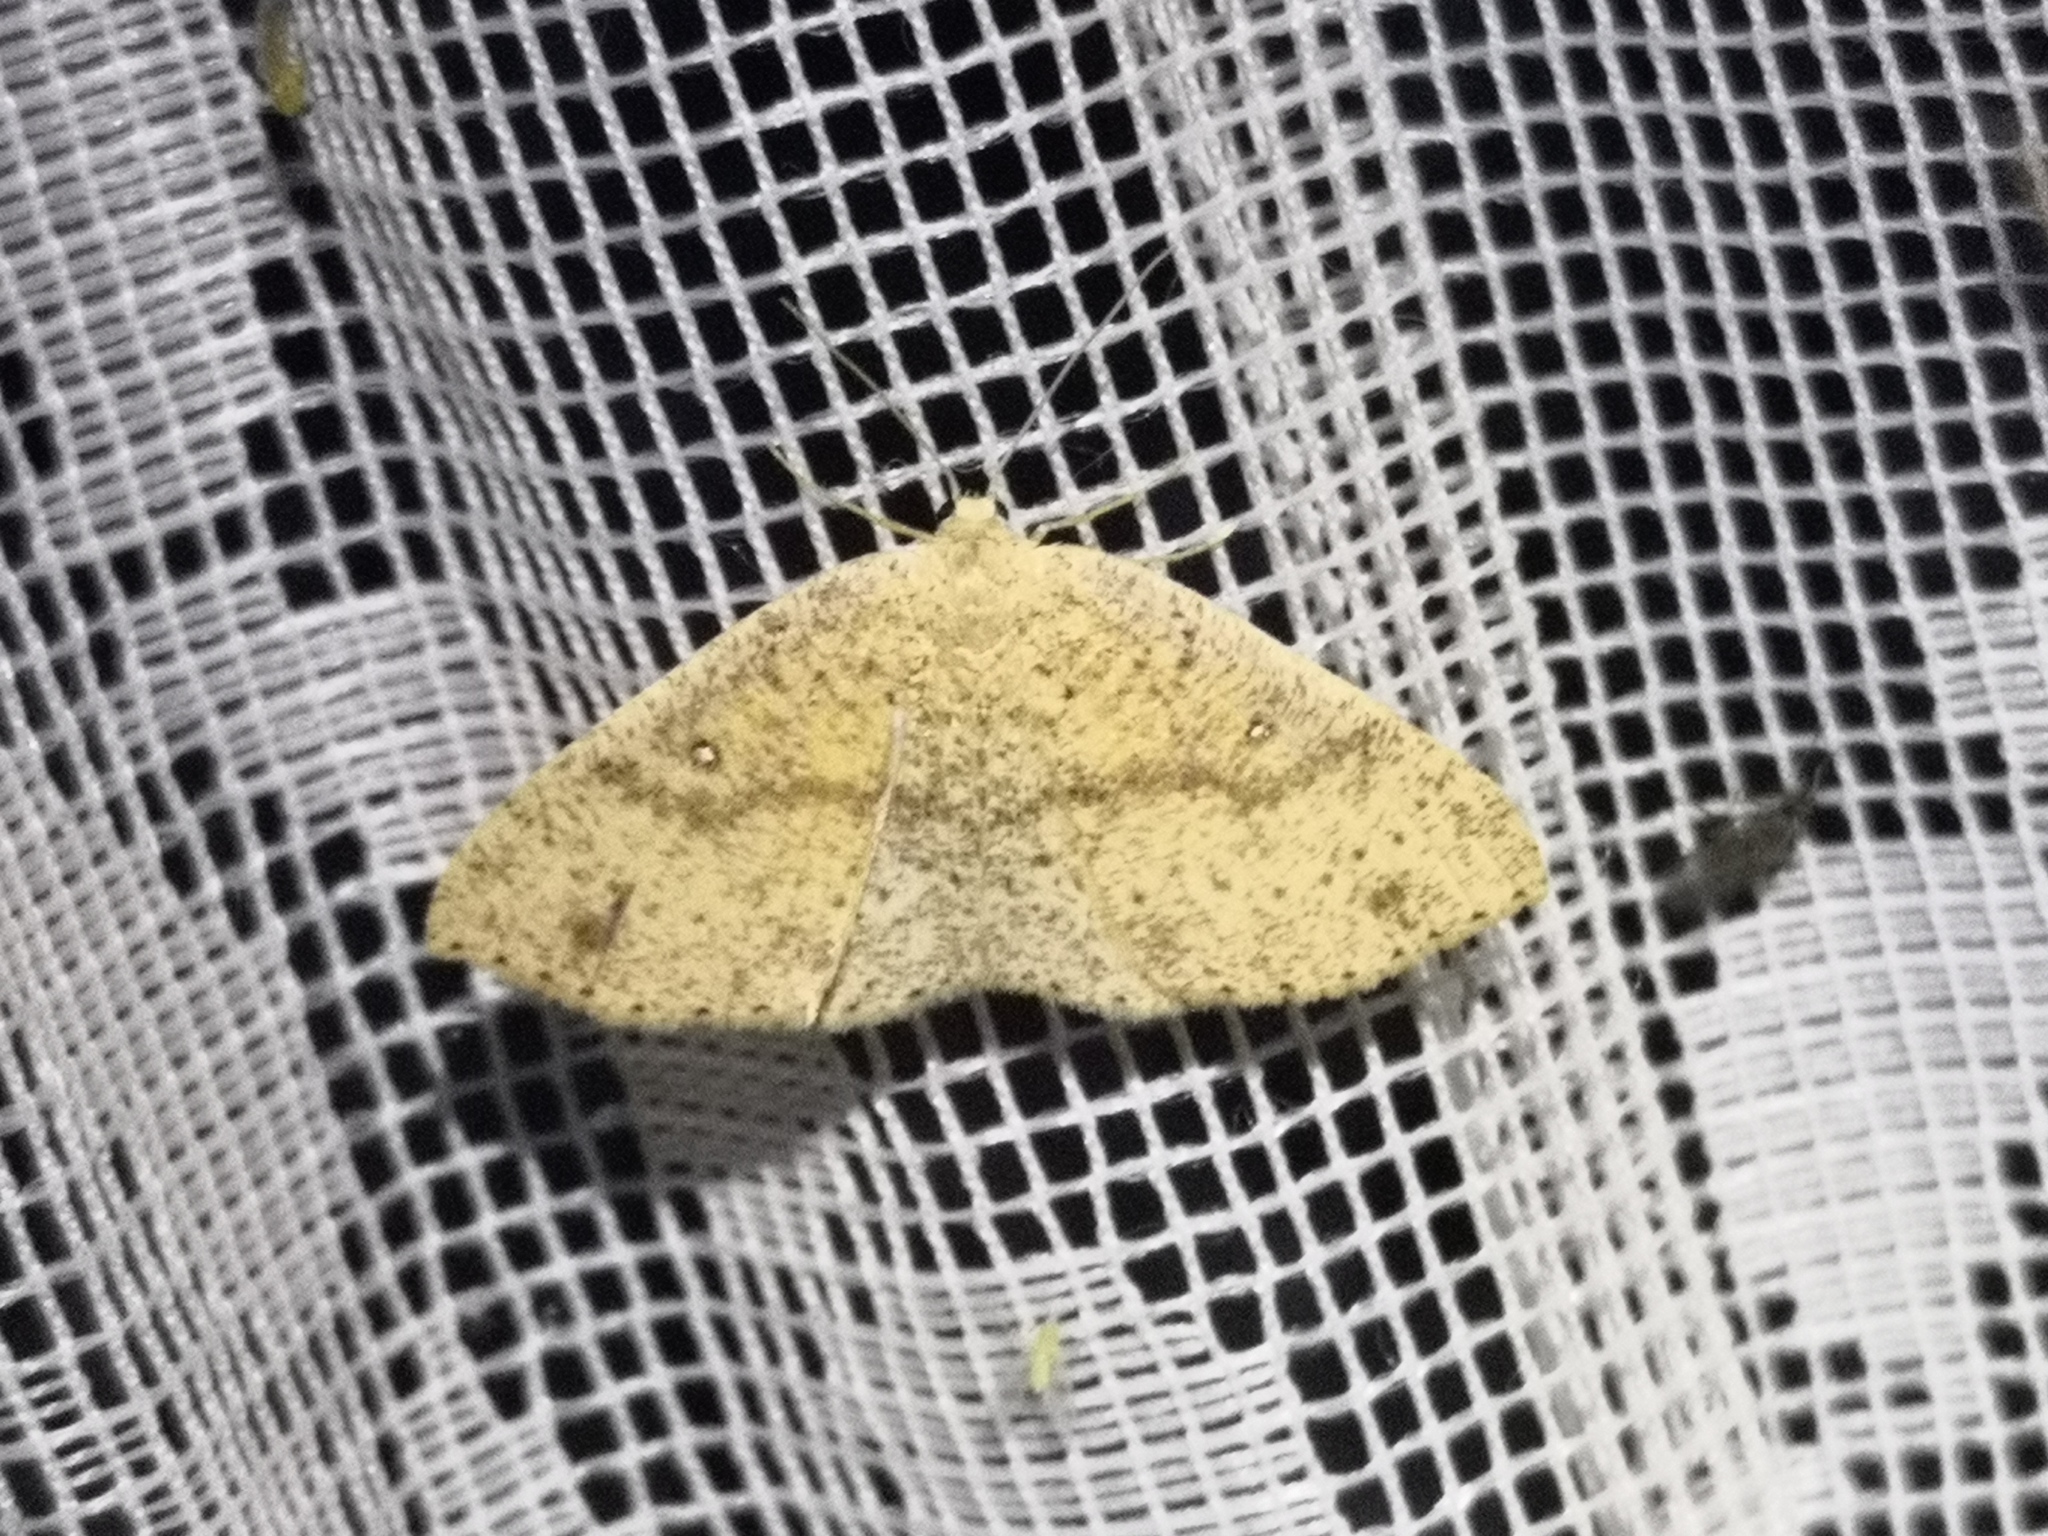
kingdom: Animalia
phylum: Arthropoda
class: Insecta
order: Lepidoptera
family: Geometridae
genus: Cyclophora
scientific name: Cyclophora porata
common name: False mocha
